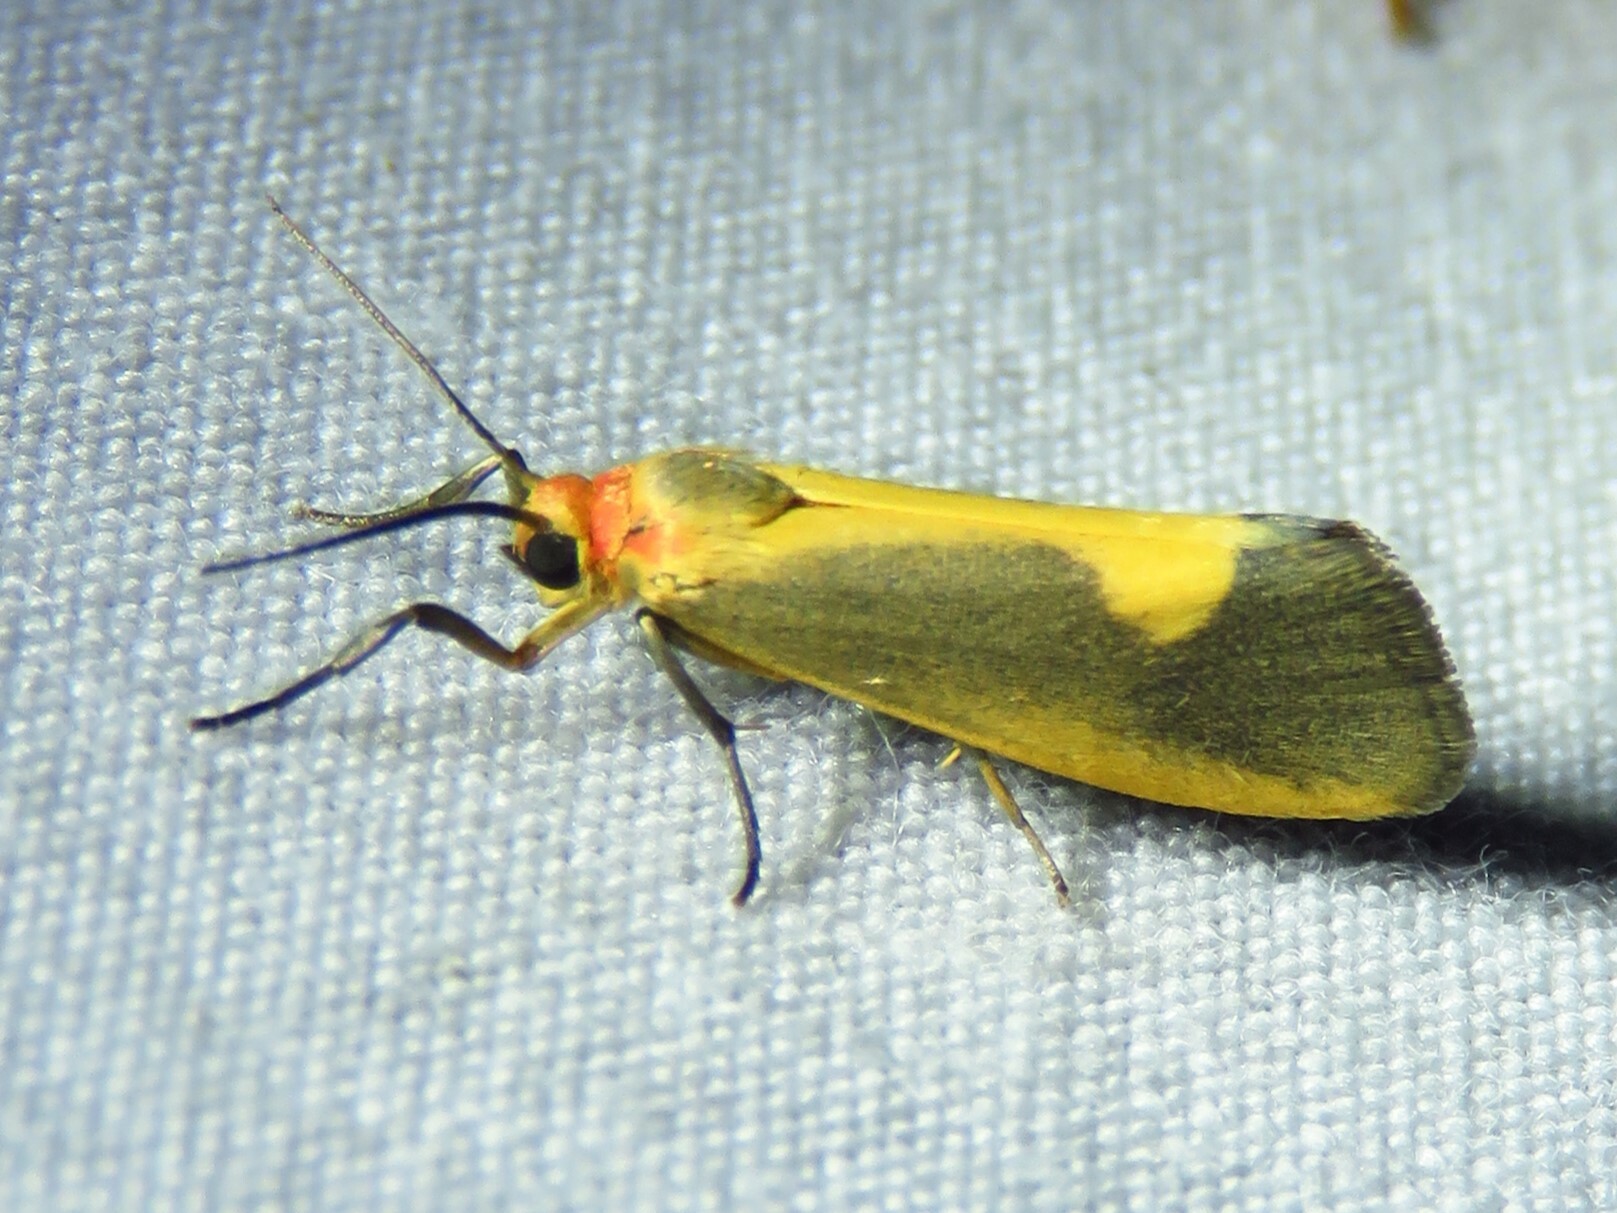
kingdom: Animalia
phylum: Arthropoda
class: Insecta
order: Lepidoptera
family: Erebidae
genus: Cisthene
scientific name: Cisthene plumbea
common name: Lead colored lichen moth
